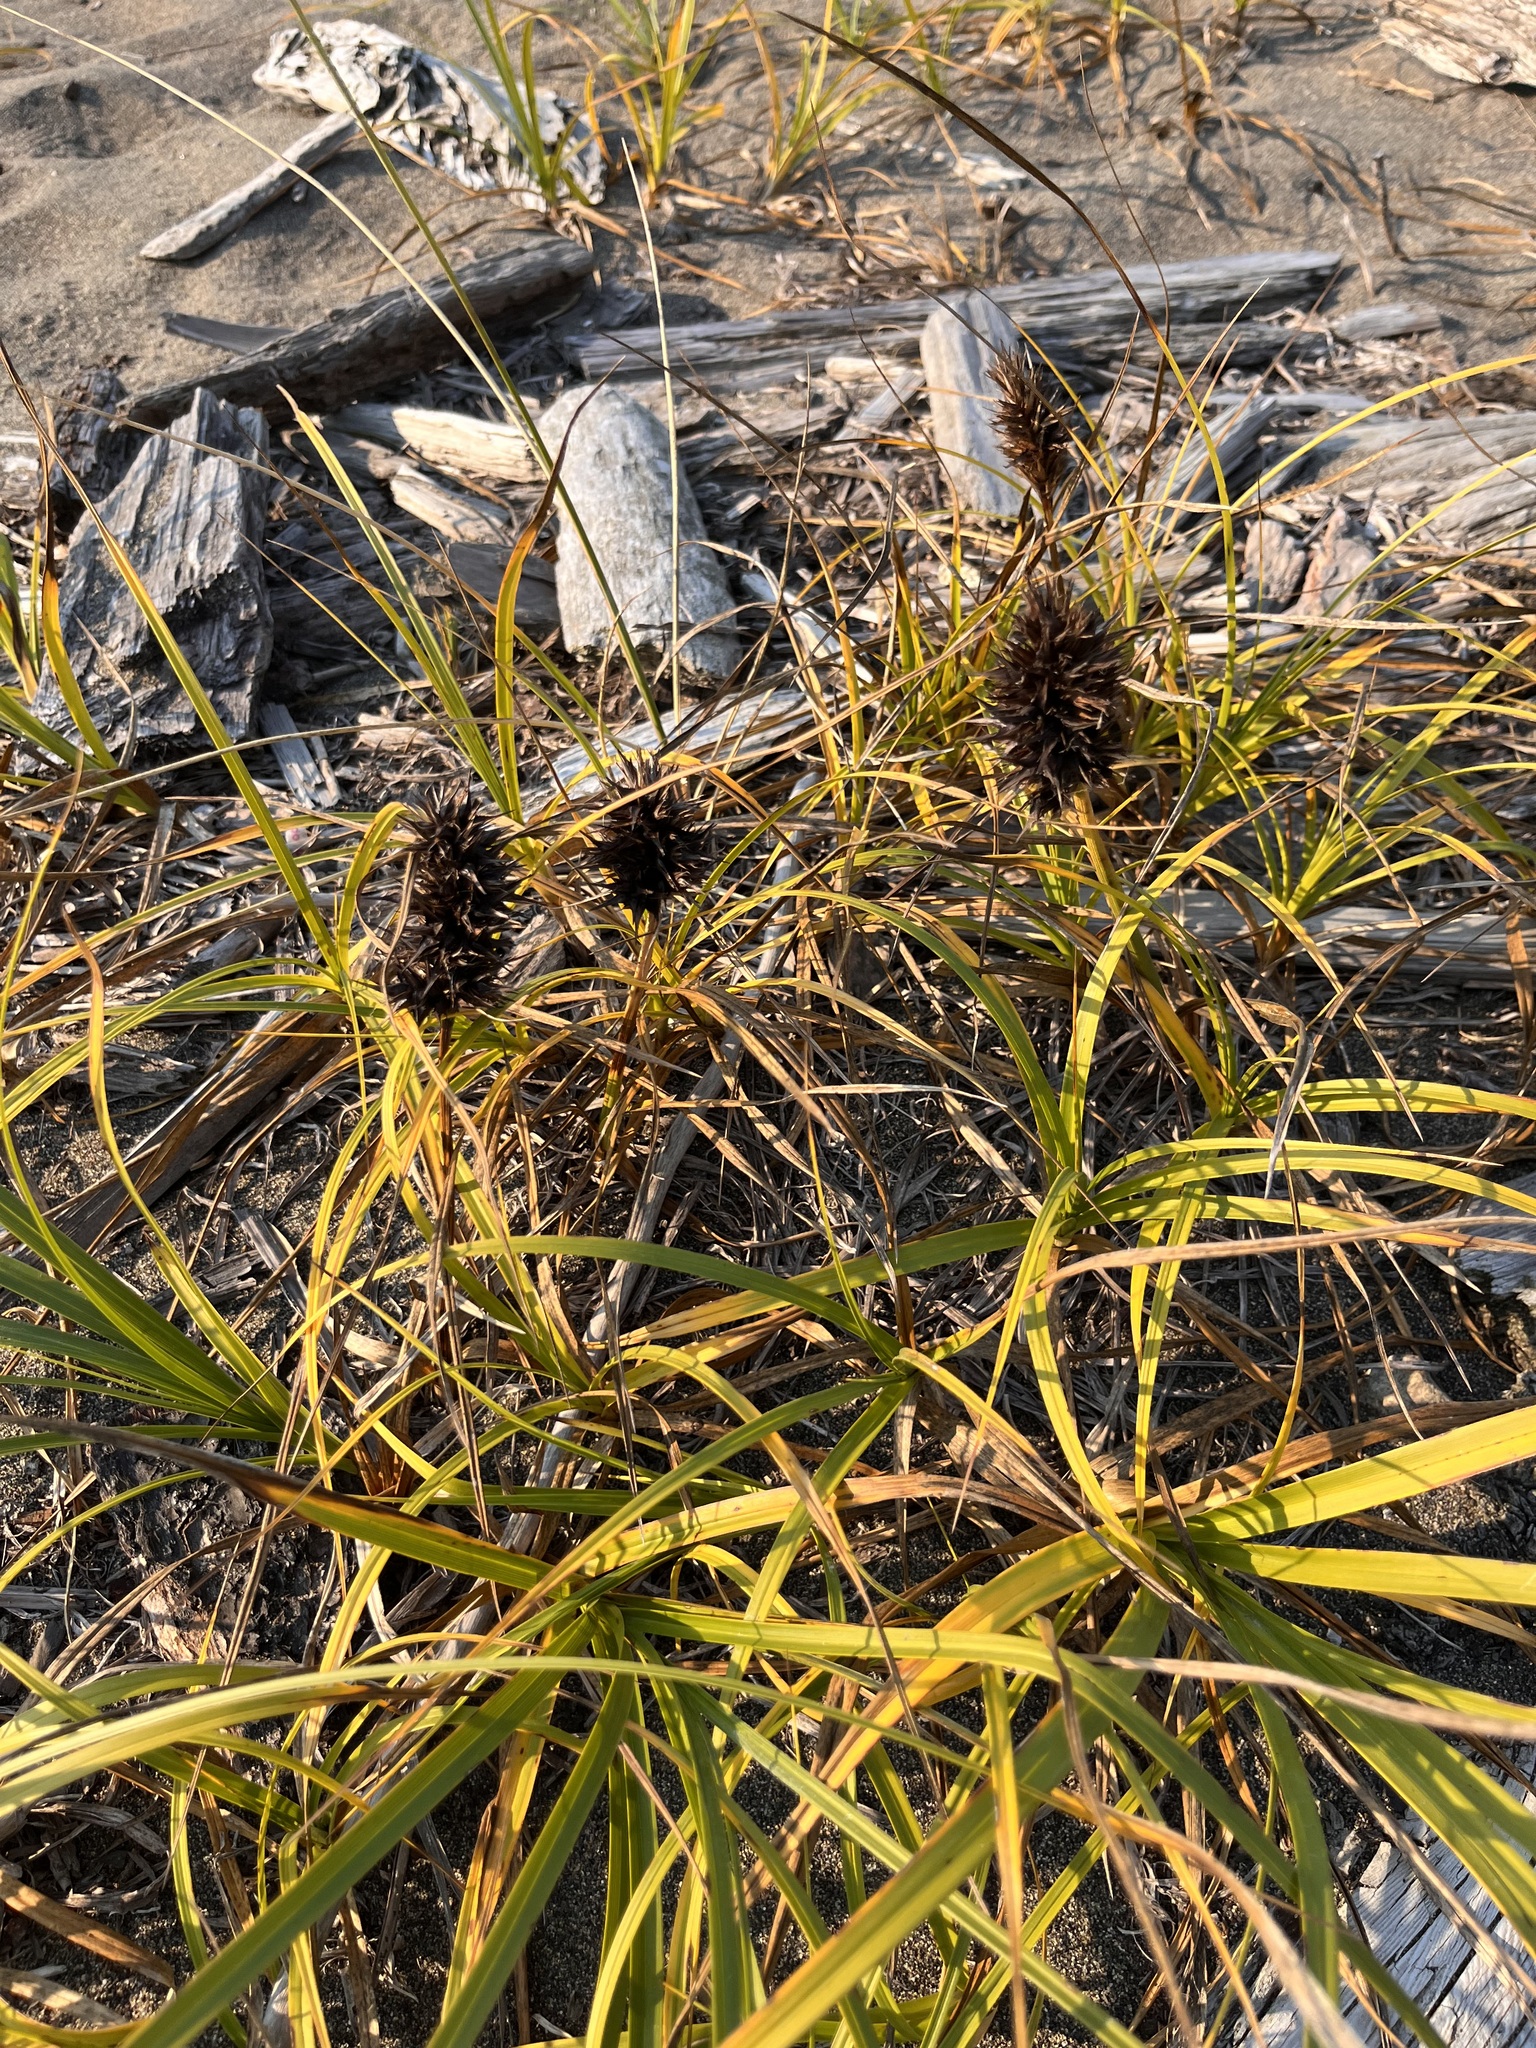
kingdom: Plantae
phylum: Tracheophyta
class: Liliopsida
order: Poales
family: Cyperaceae
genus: Carex
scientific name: Carex macrocephala
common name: Large-head sedge
